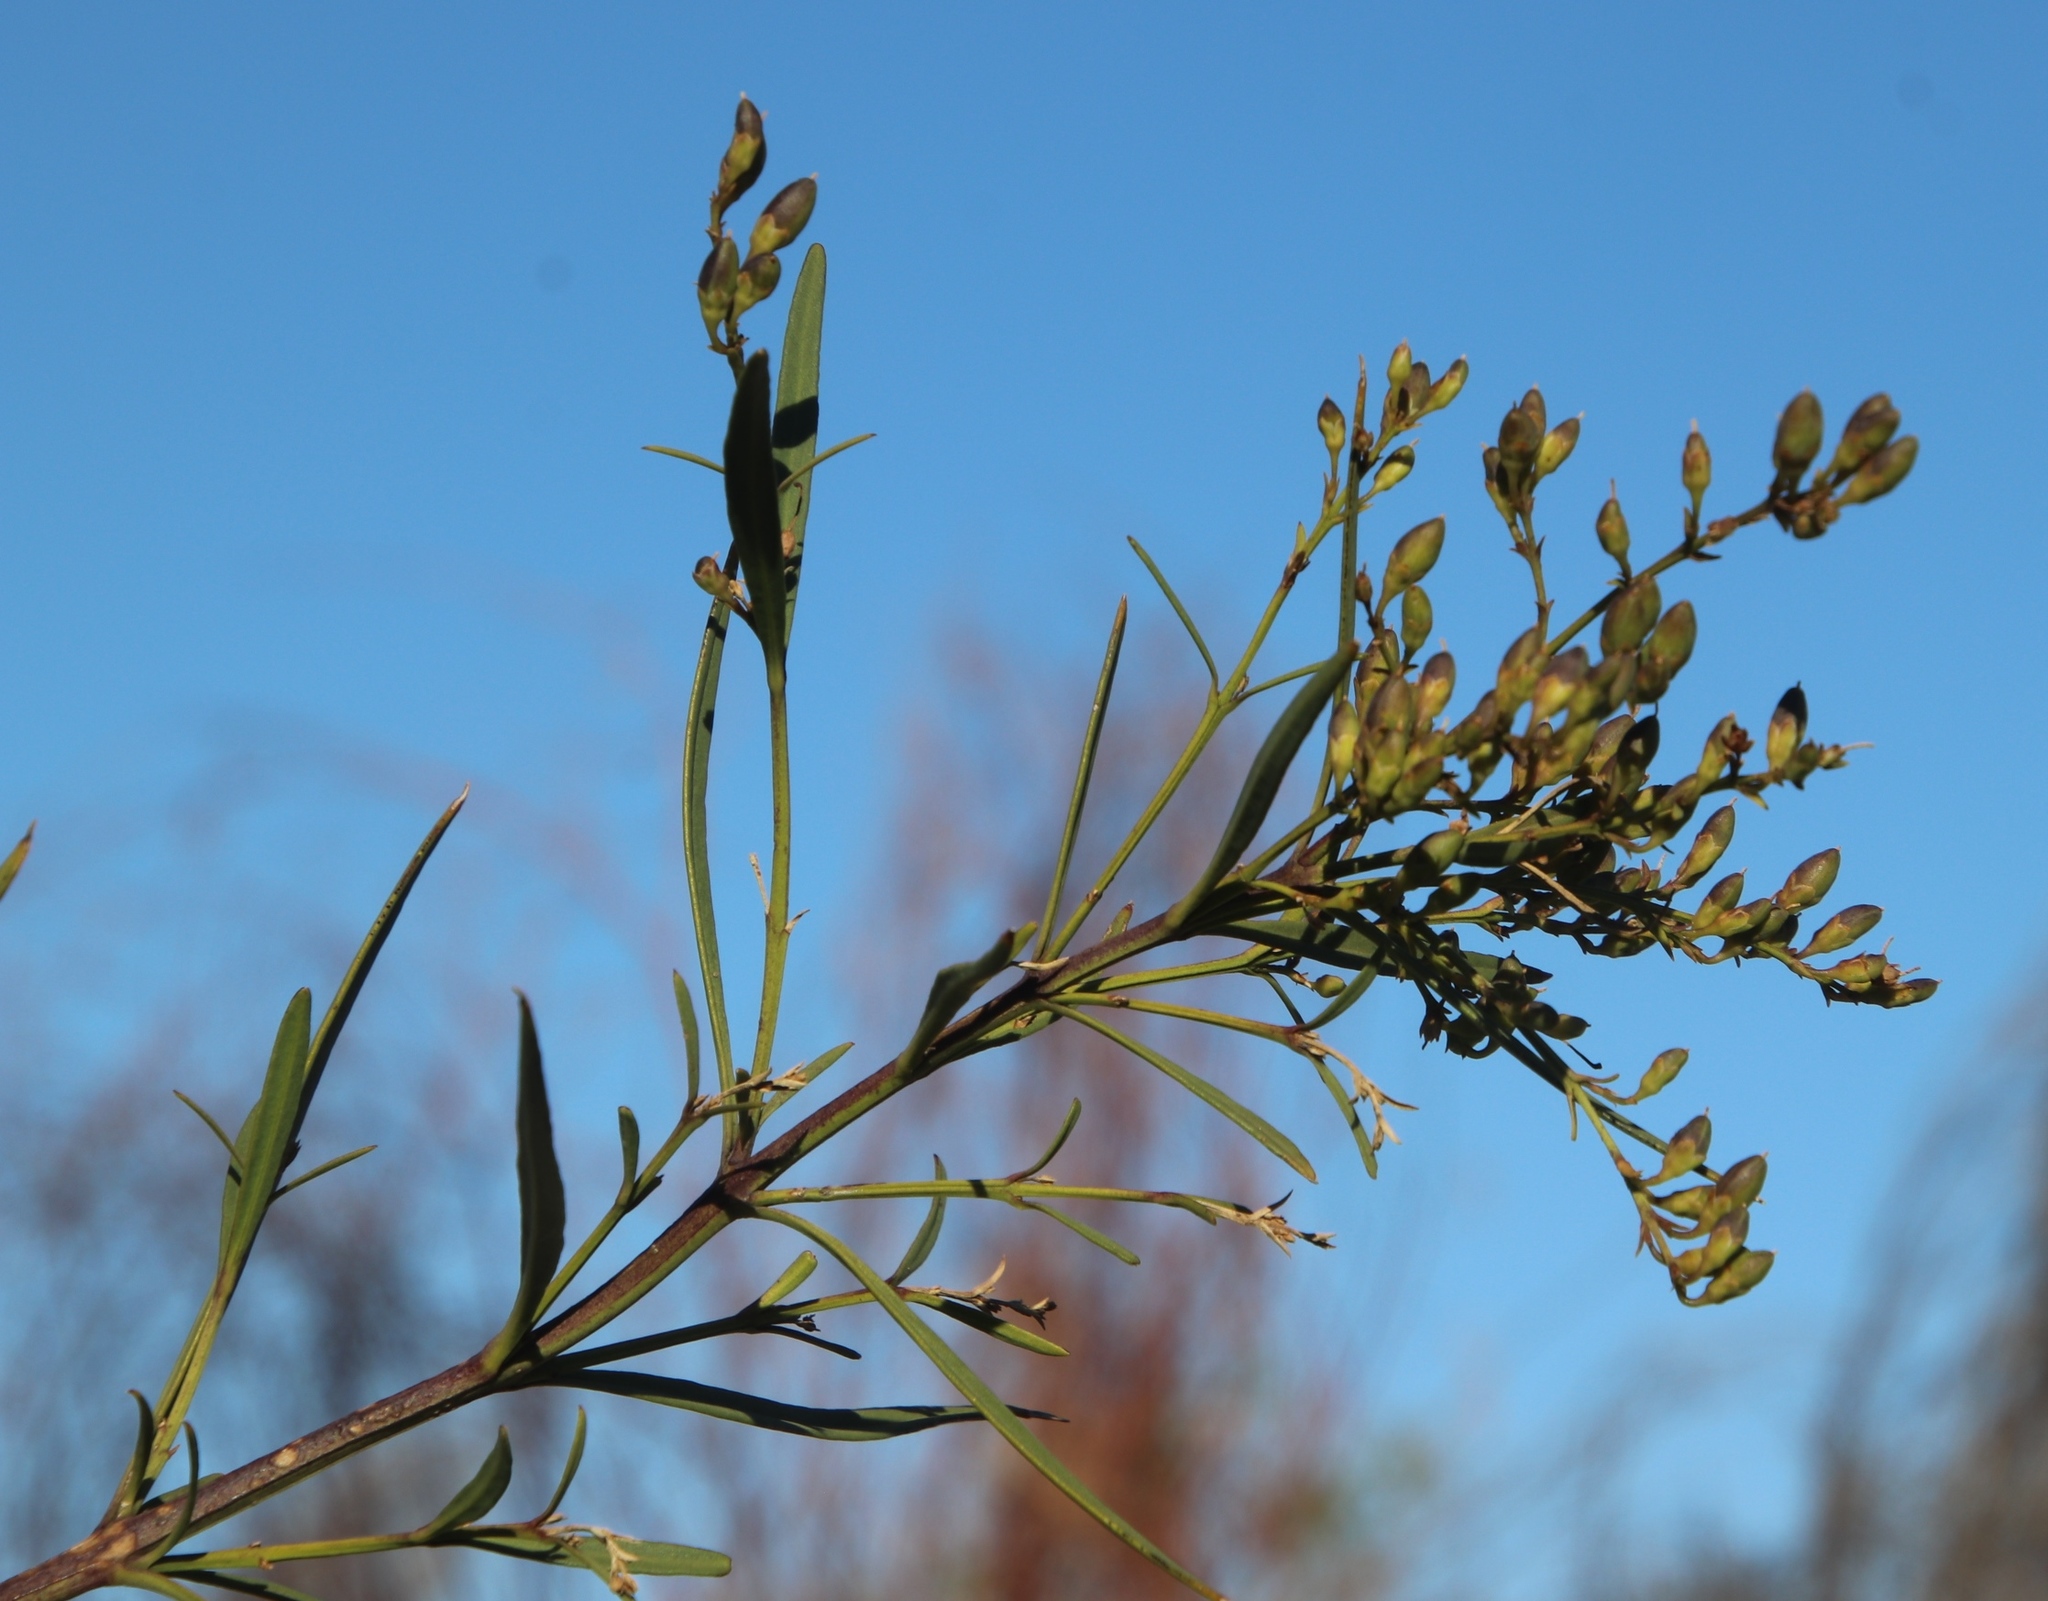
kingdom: Plantae
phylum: Tracheophyta
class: Magnoliopsida
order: Lamiales
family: Scrophulariaceae
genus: Freylinia
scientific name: Freylinia lanceolata
